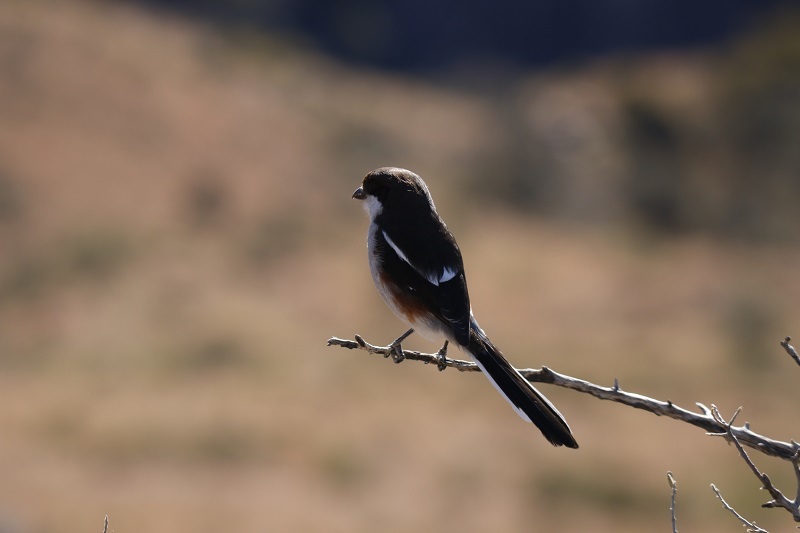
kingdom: Animalia
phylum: Chordata
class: Aves
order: Passeriformes
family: Laniidae
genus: Lanius
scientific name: Lanius collaris
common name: Southern fiscal
